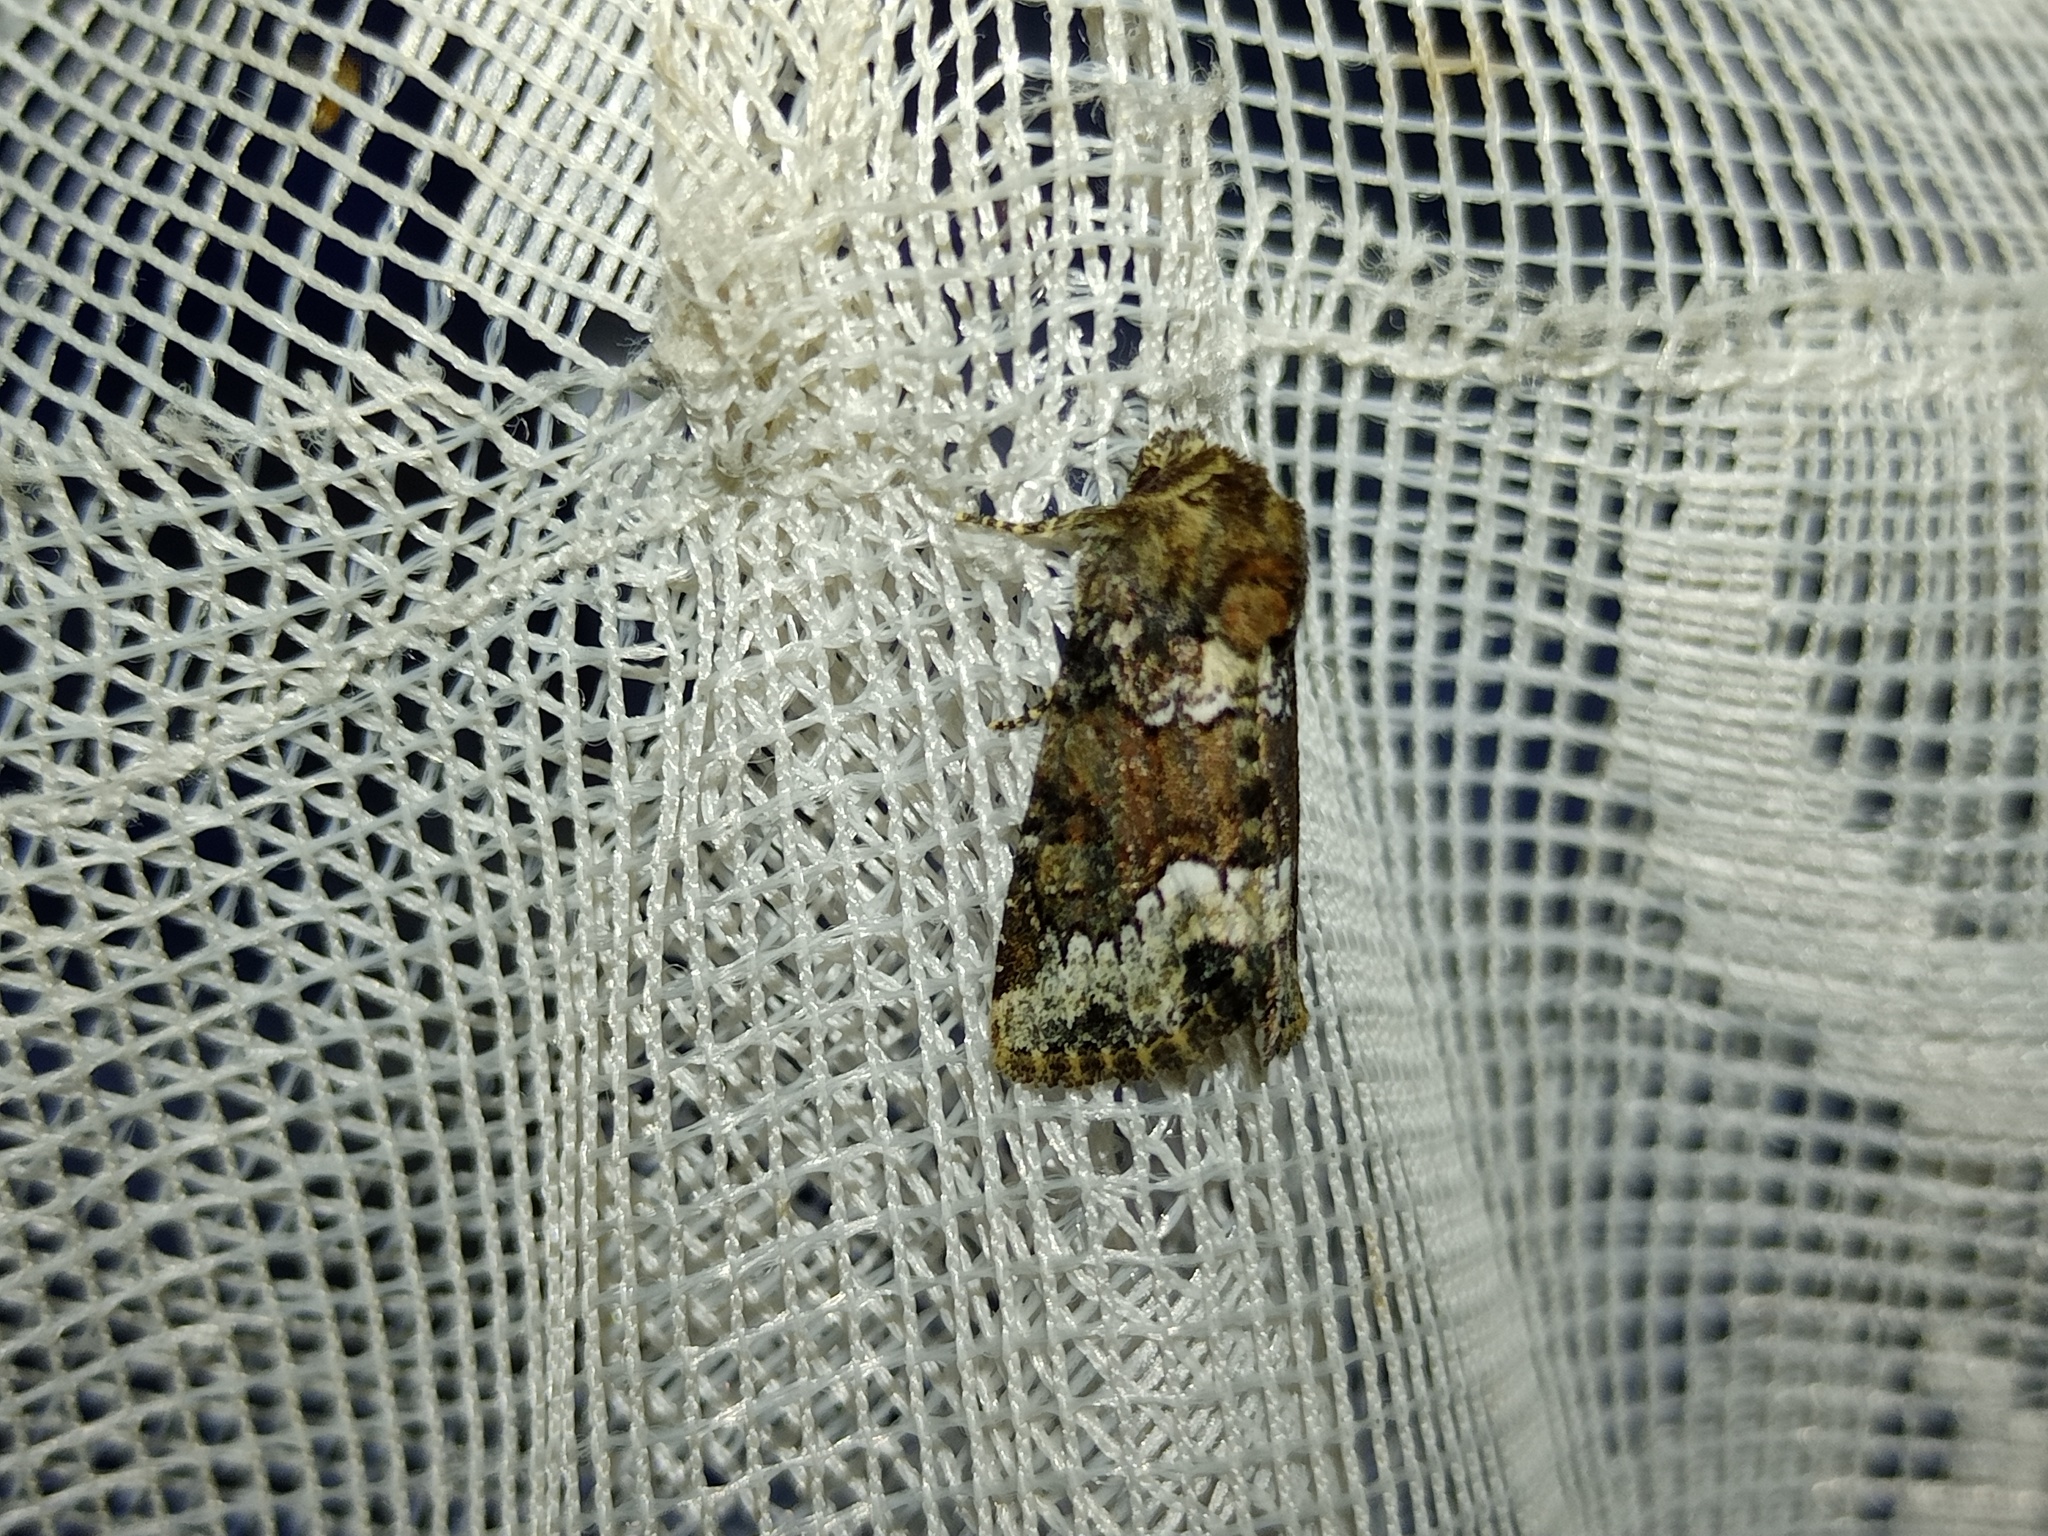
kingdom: Animalia
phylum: Arthropoda
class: Insecta
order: Lepidoptera
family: Noctuidae
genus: Oligia
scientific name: Oligia strigilis
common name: Marbled minor
